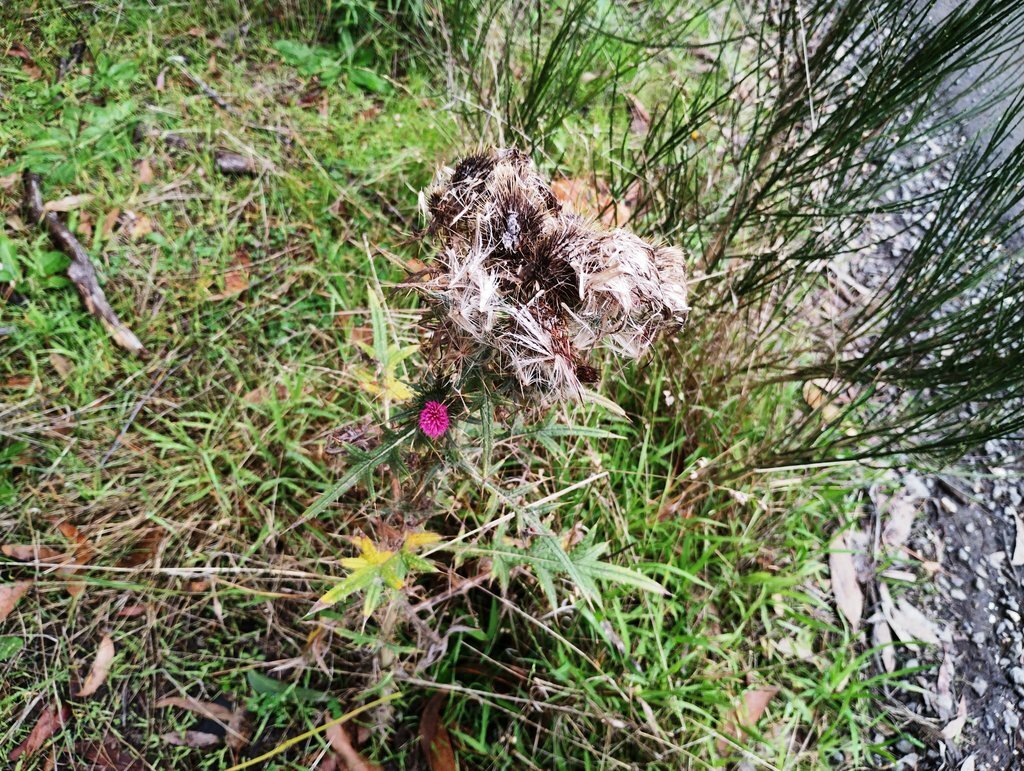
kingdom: Plantae
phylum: Tracheophyta
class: Magnoliopsida
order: Asterales
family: Asteraceae
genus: Cirsium
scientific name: Cirsium vulgare
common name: Bull thistle
